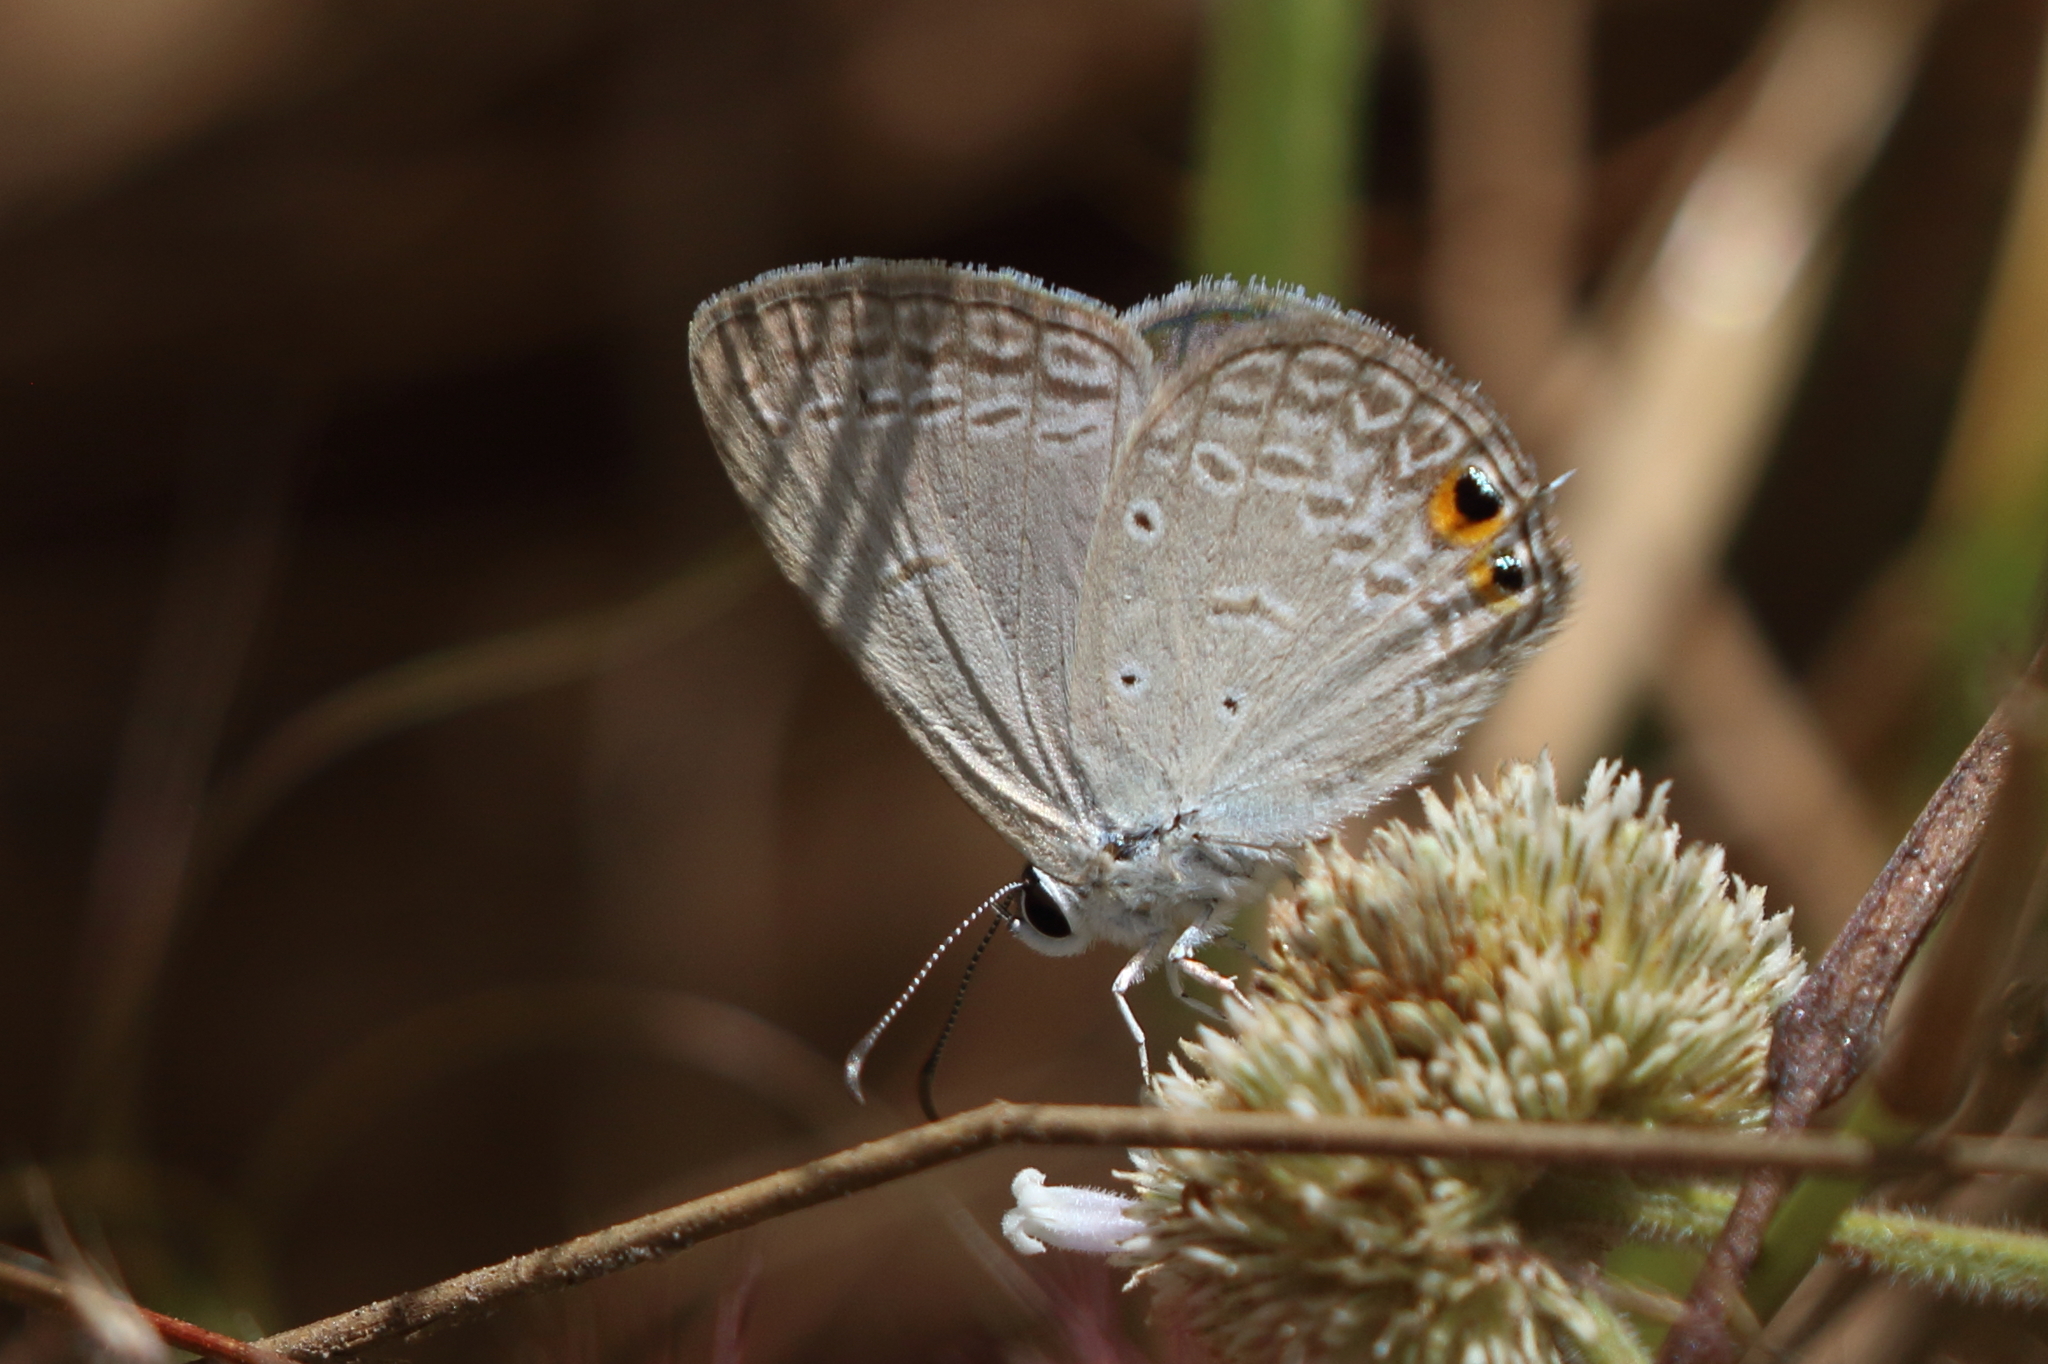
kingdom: Animalia
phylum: Arthropoda
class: Insecta
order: Lepidoptera
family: Lycaenidae
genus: Euchrysops
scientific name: Euchrysops cnejus
